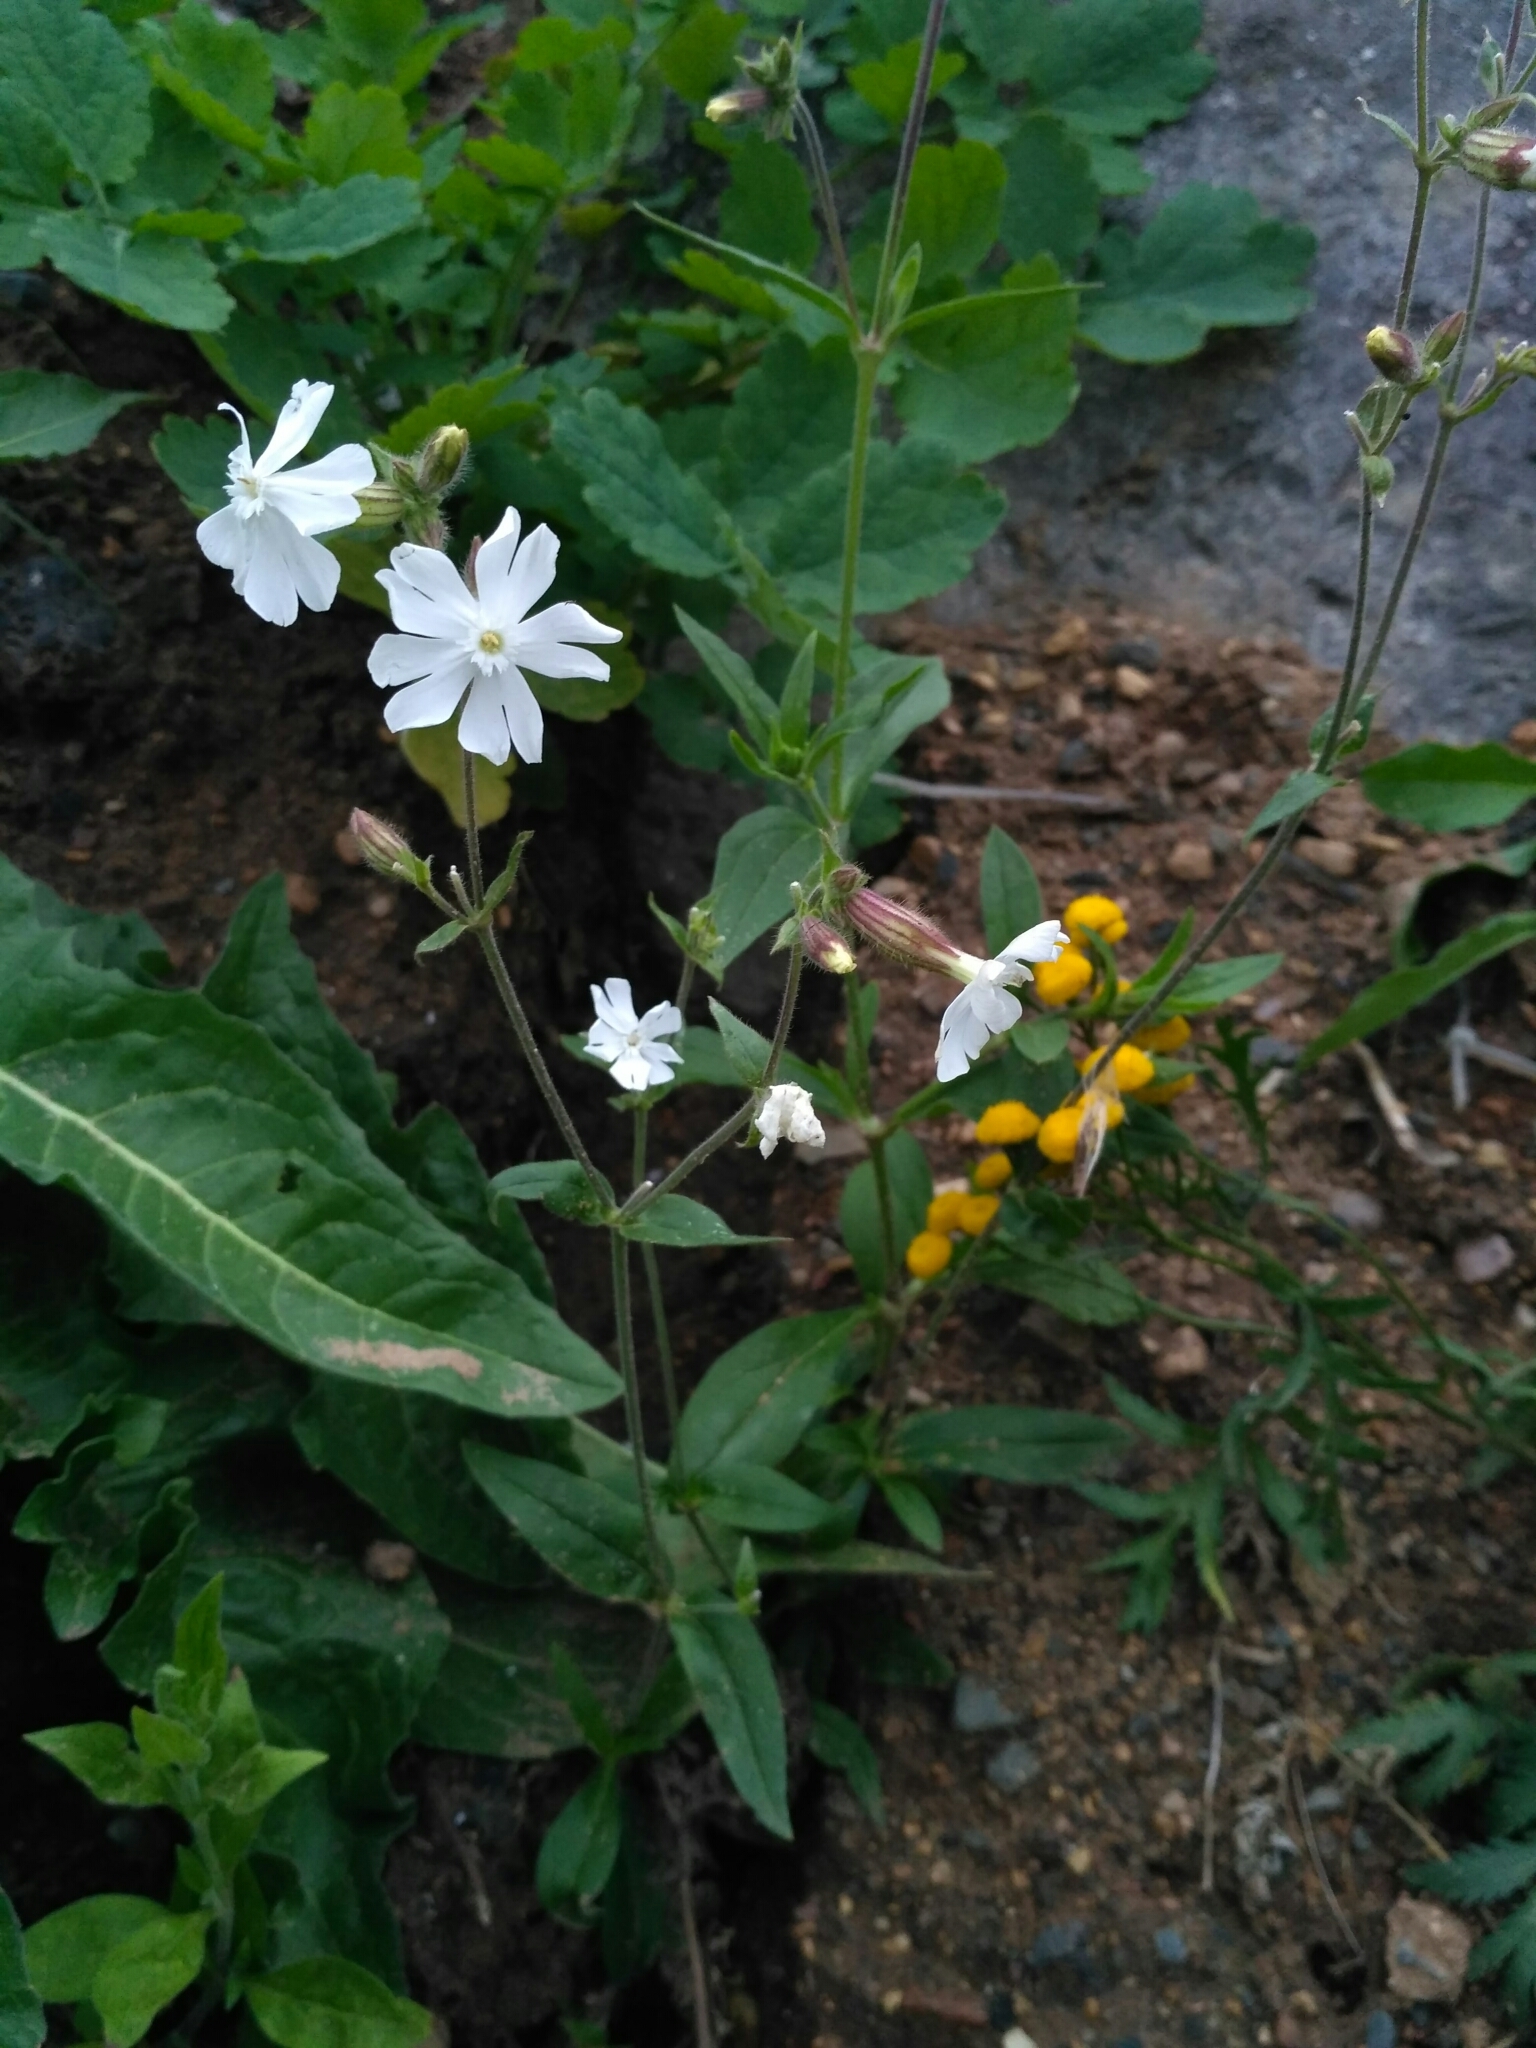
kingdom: Plantae
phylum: Tracheophyta
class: Magnoliopsida
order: Caryophyllales
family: Caryophyllaceae
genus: Silene
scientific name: Silene latifolia
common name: White campion
